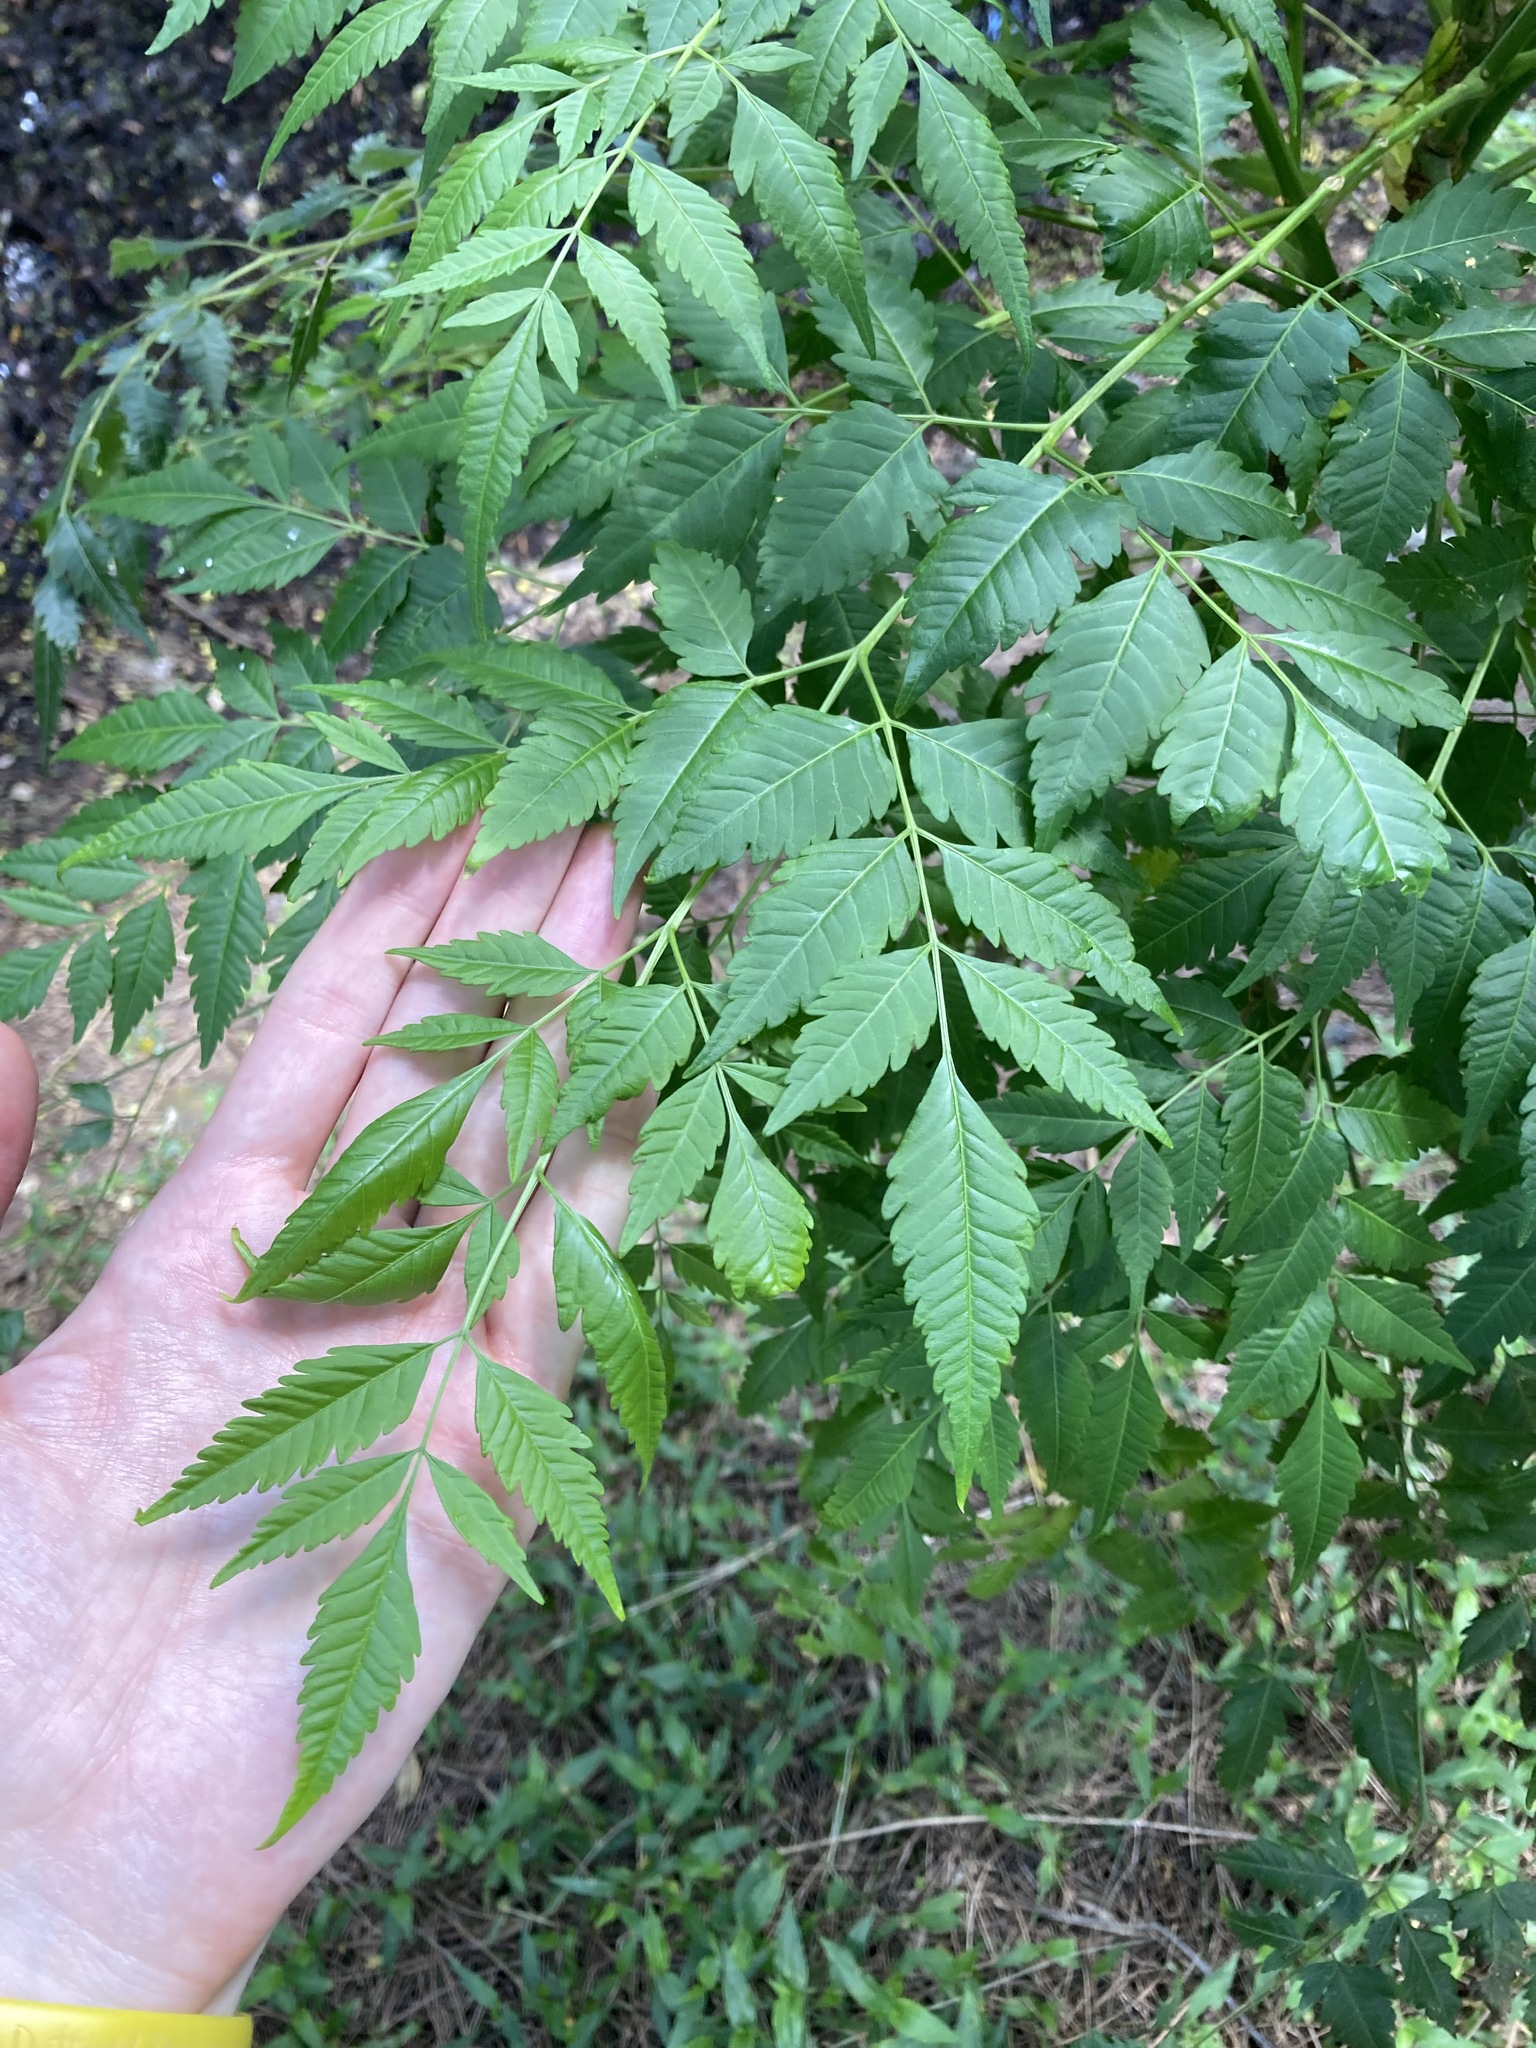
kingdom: Plantae
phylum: Tracheophyta
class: Magnoliopsida
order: Sapindales
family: Meliaceae
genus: Melia
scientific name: Melia azedarach
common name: Chinaberrytree
